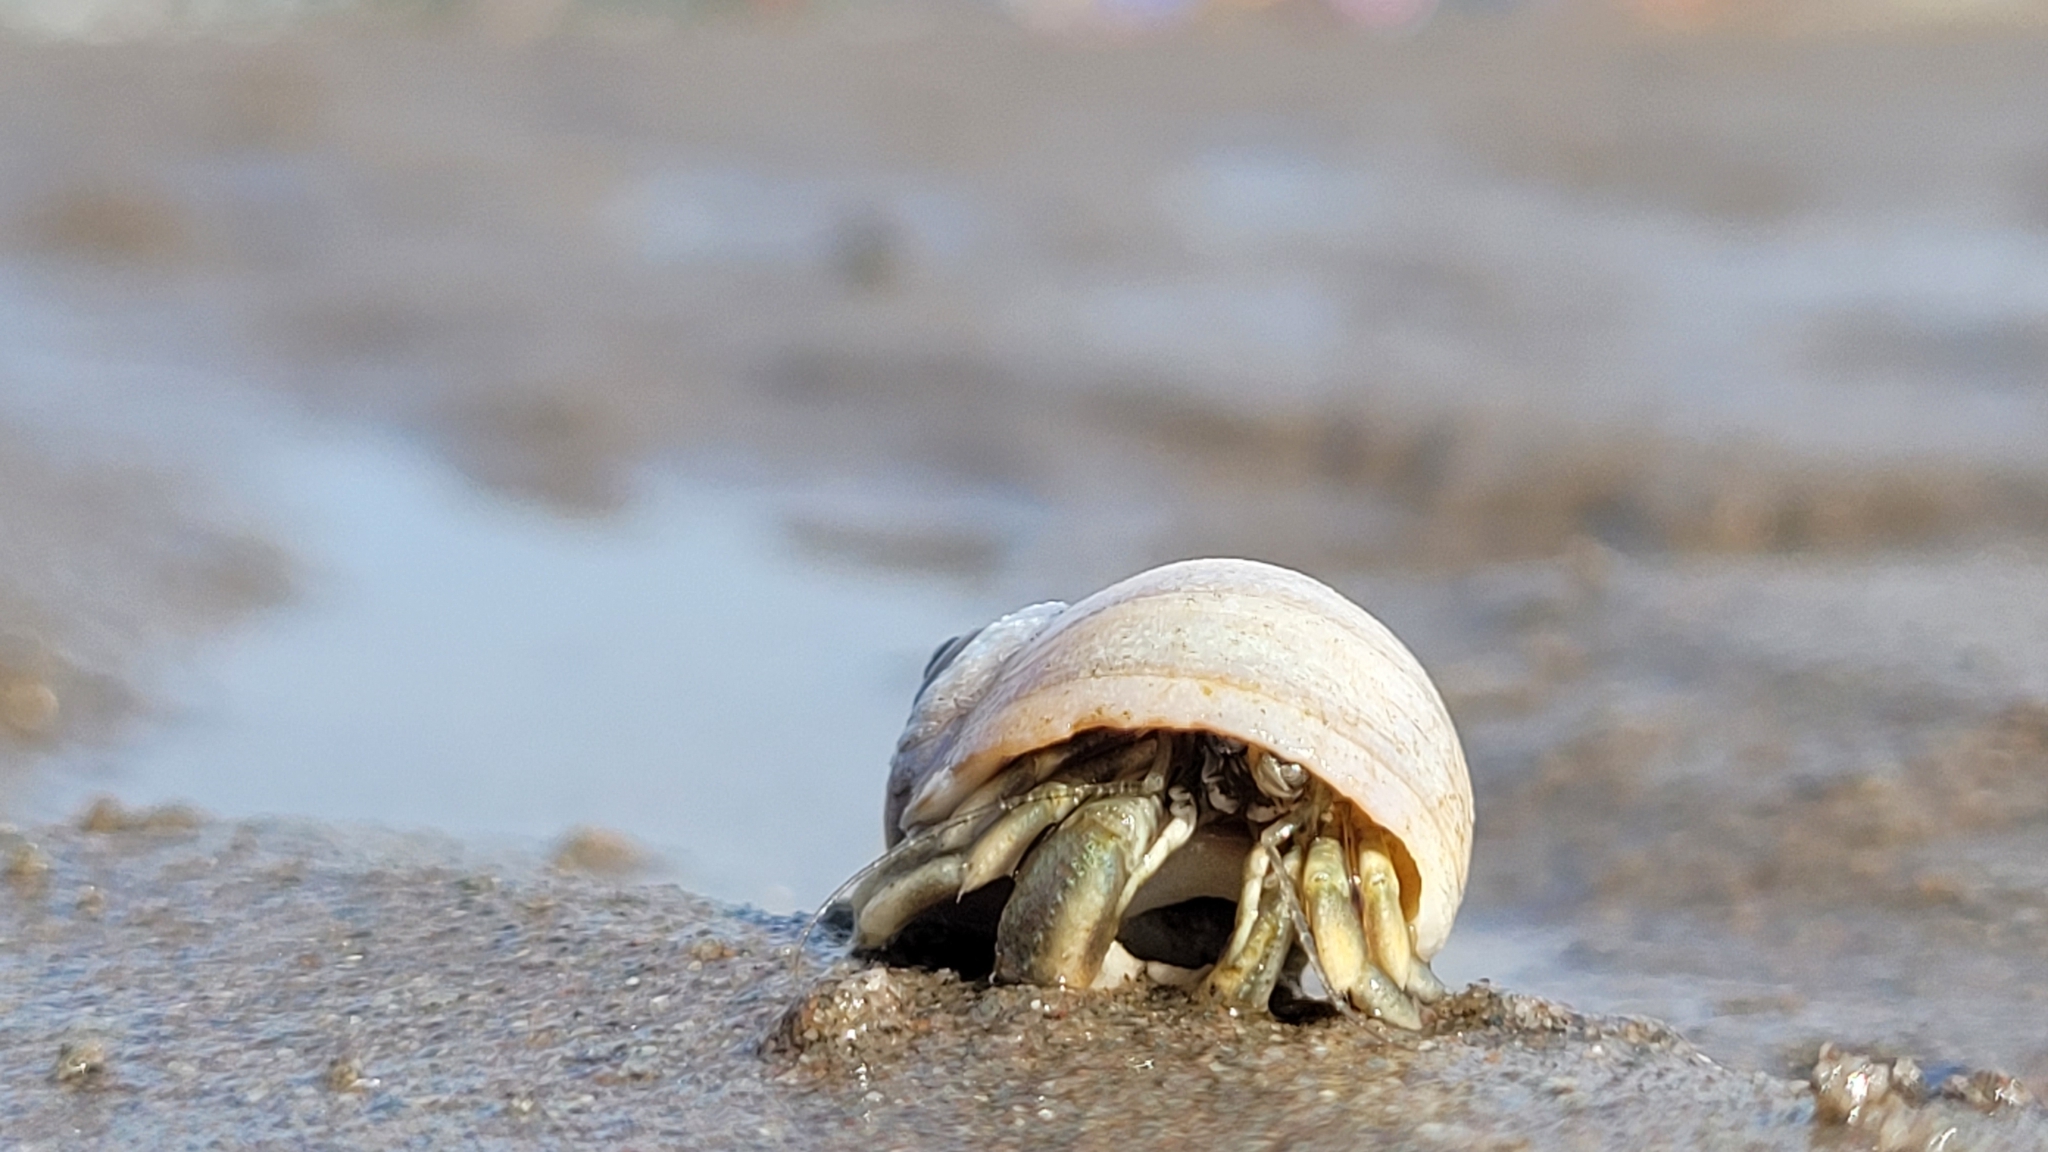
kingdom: Animalia
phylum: Arthropoda
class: Malacostraca
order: Decapoda
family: Paguridae
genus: Pagurus
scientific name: Pagurus longicarpus
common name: Long-armed hermit crab
